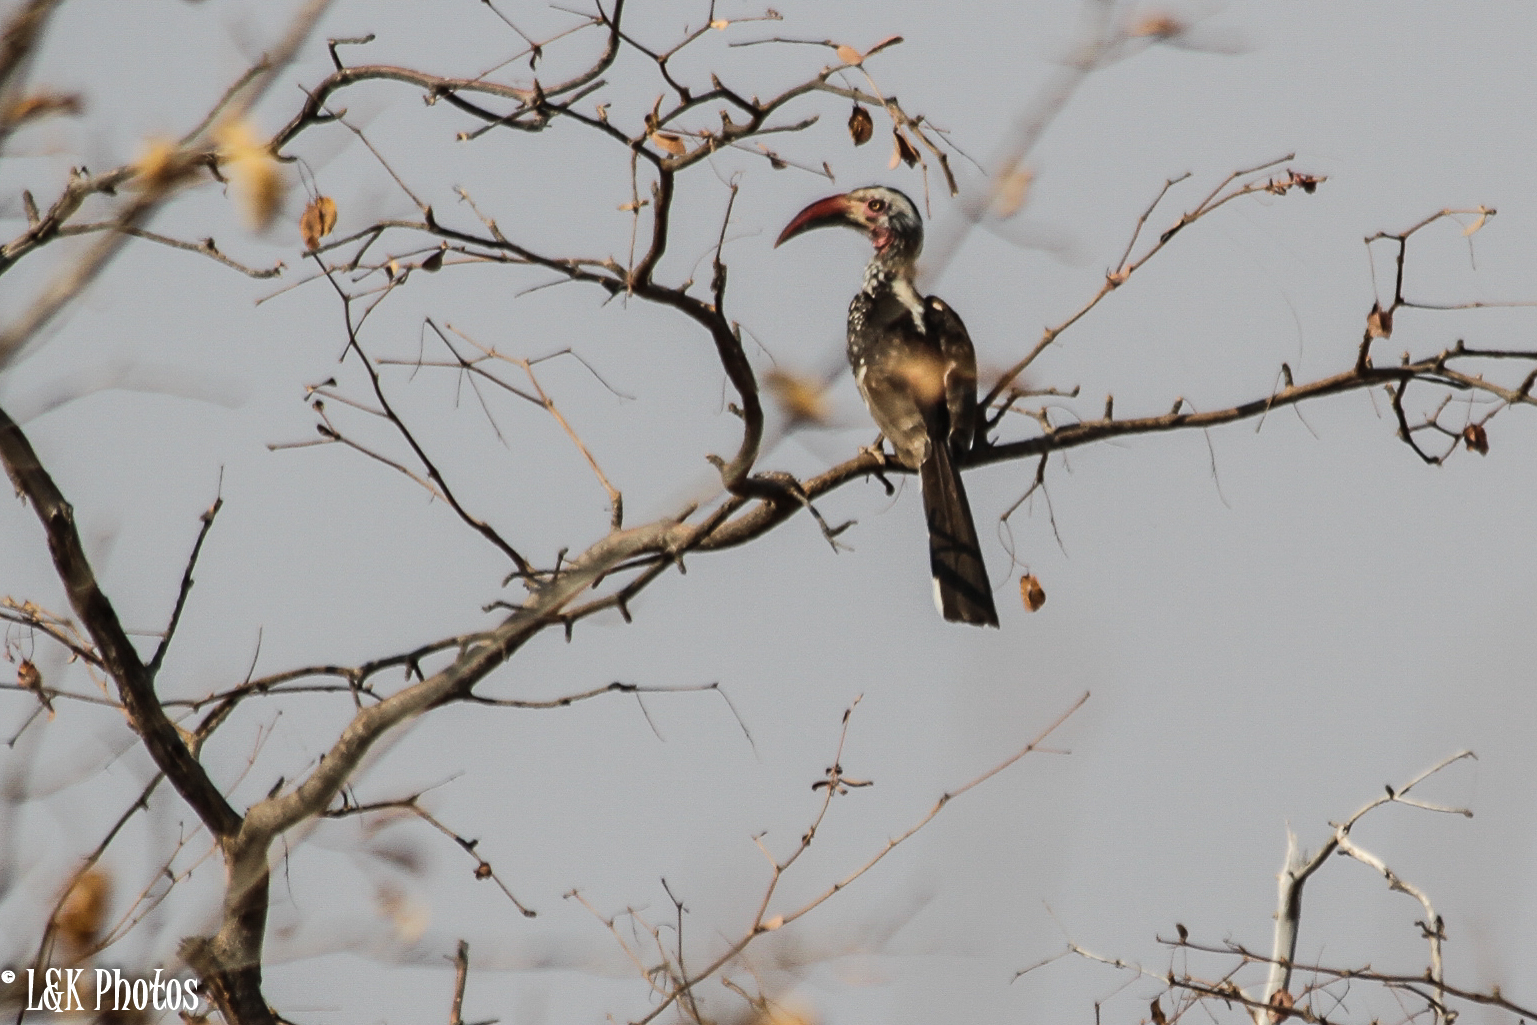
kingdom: Animalia
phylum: Chordata
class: Aves
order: Bucerotiformes
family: Bucerotidae
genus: Tockus
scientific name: Tockus rufirostris
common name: Southern red-billed hornbill
